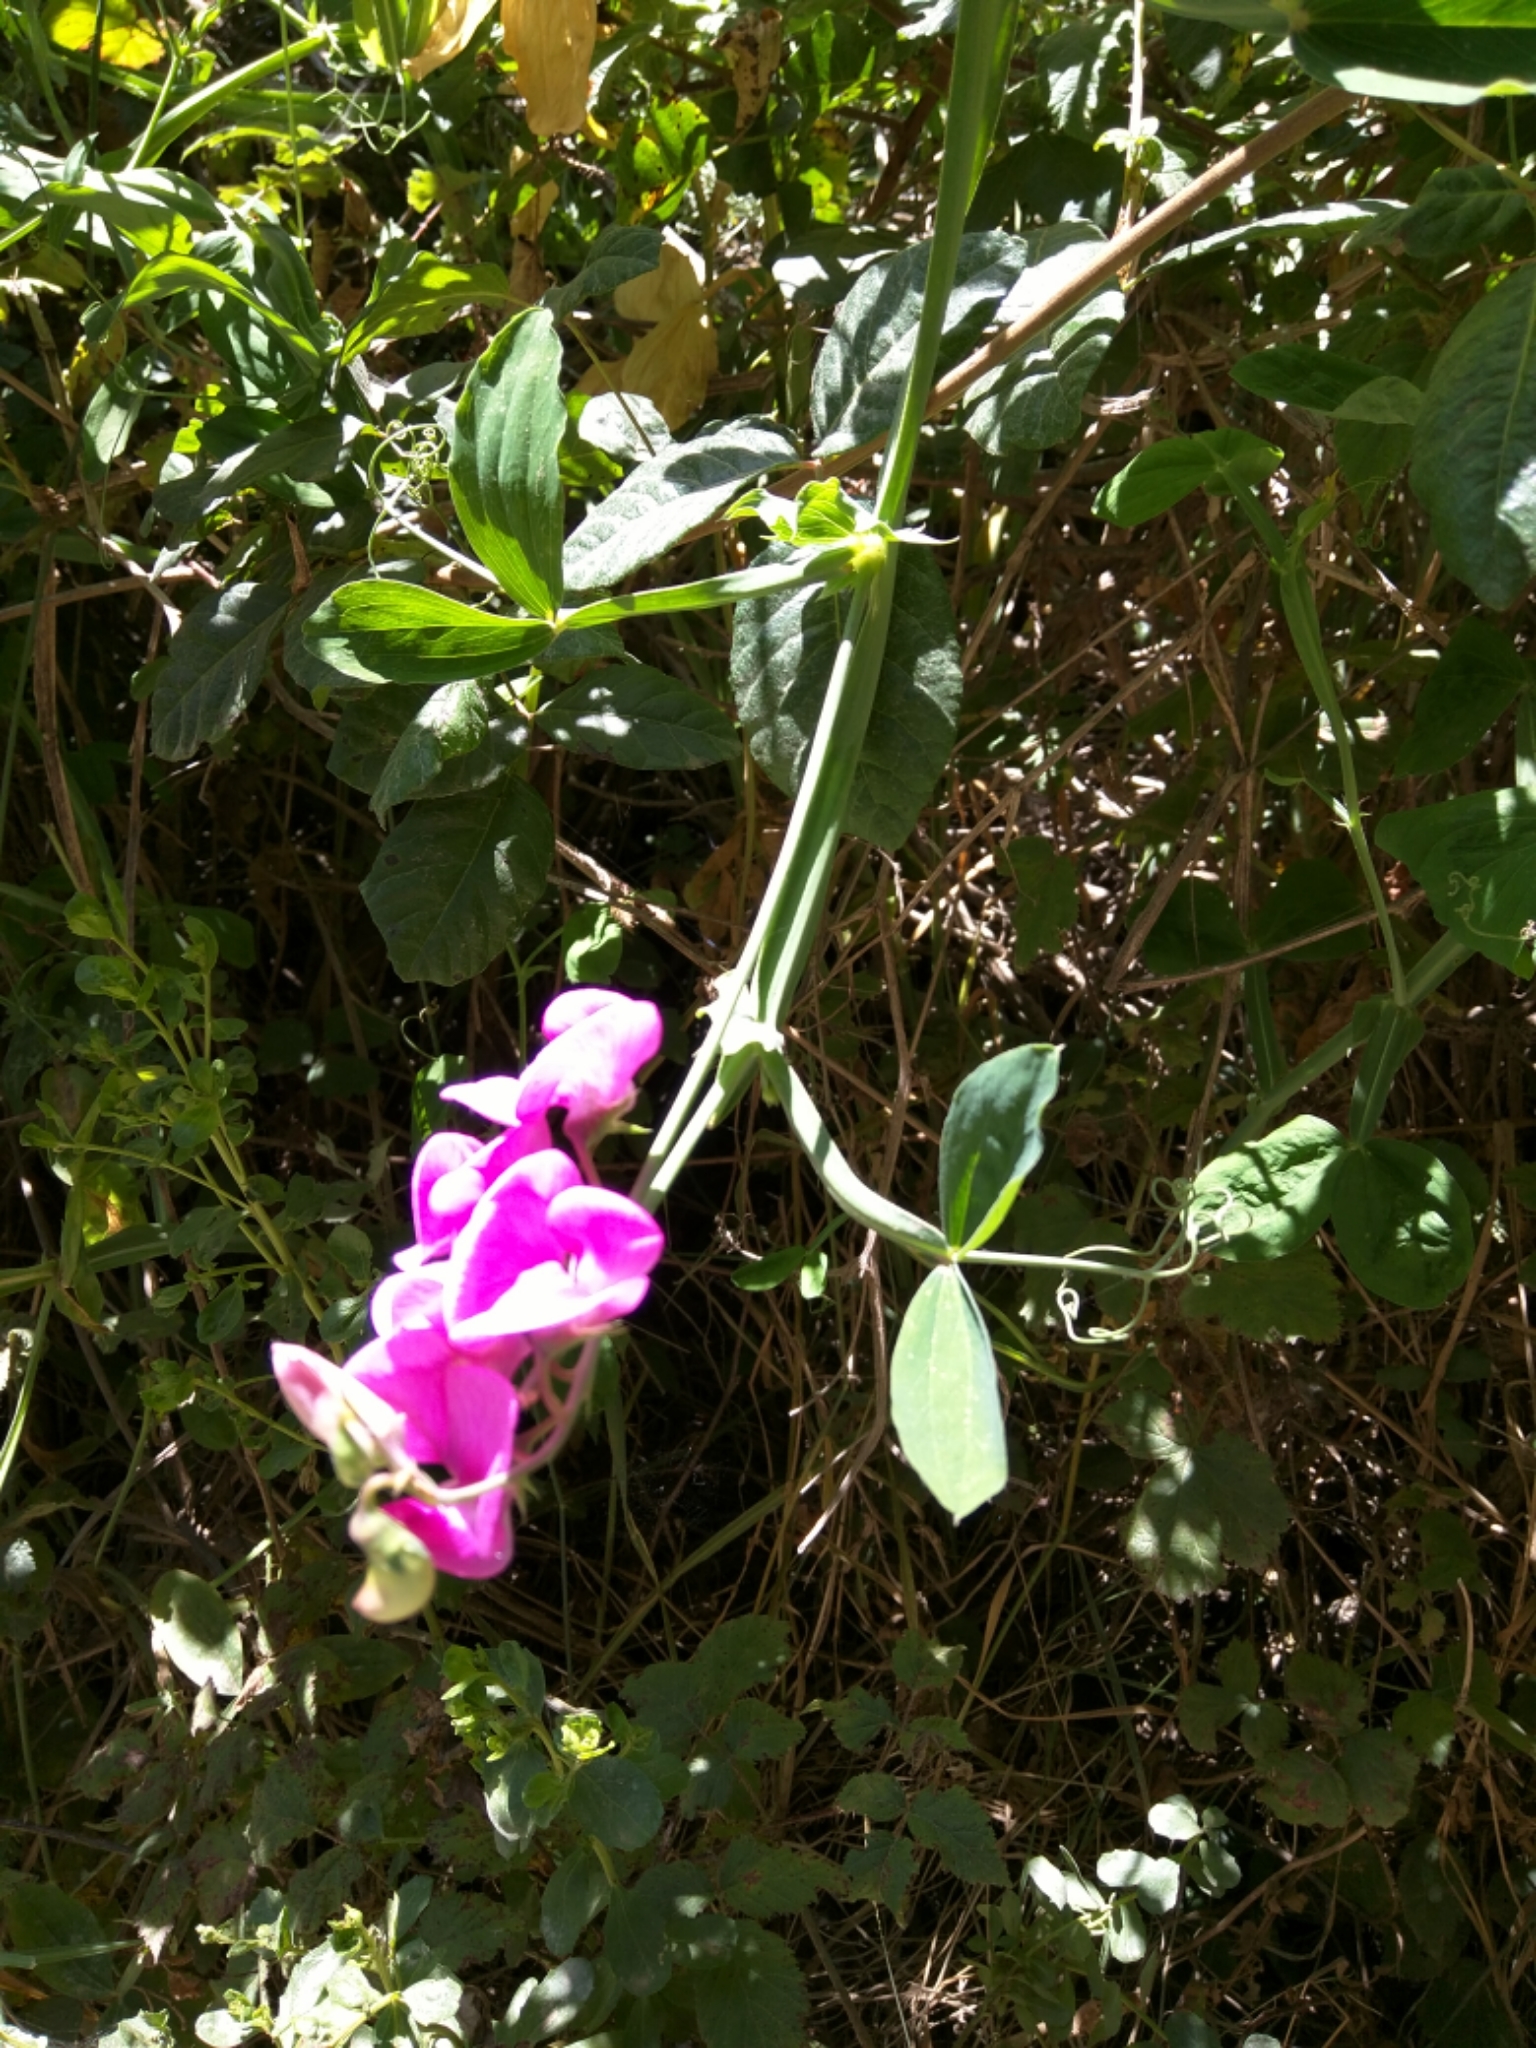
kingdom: Plantae
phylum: Tracheophyta
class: Magnoliopsida
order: Fabales
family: Fabaceae
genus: Lathyrus
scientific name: Lathyrus latifolius
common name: Perennial pea
